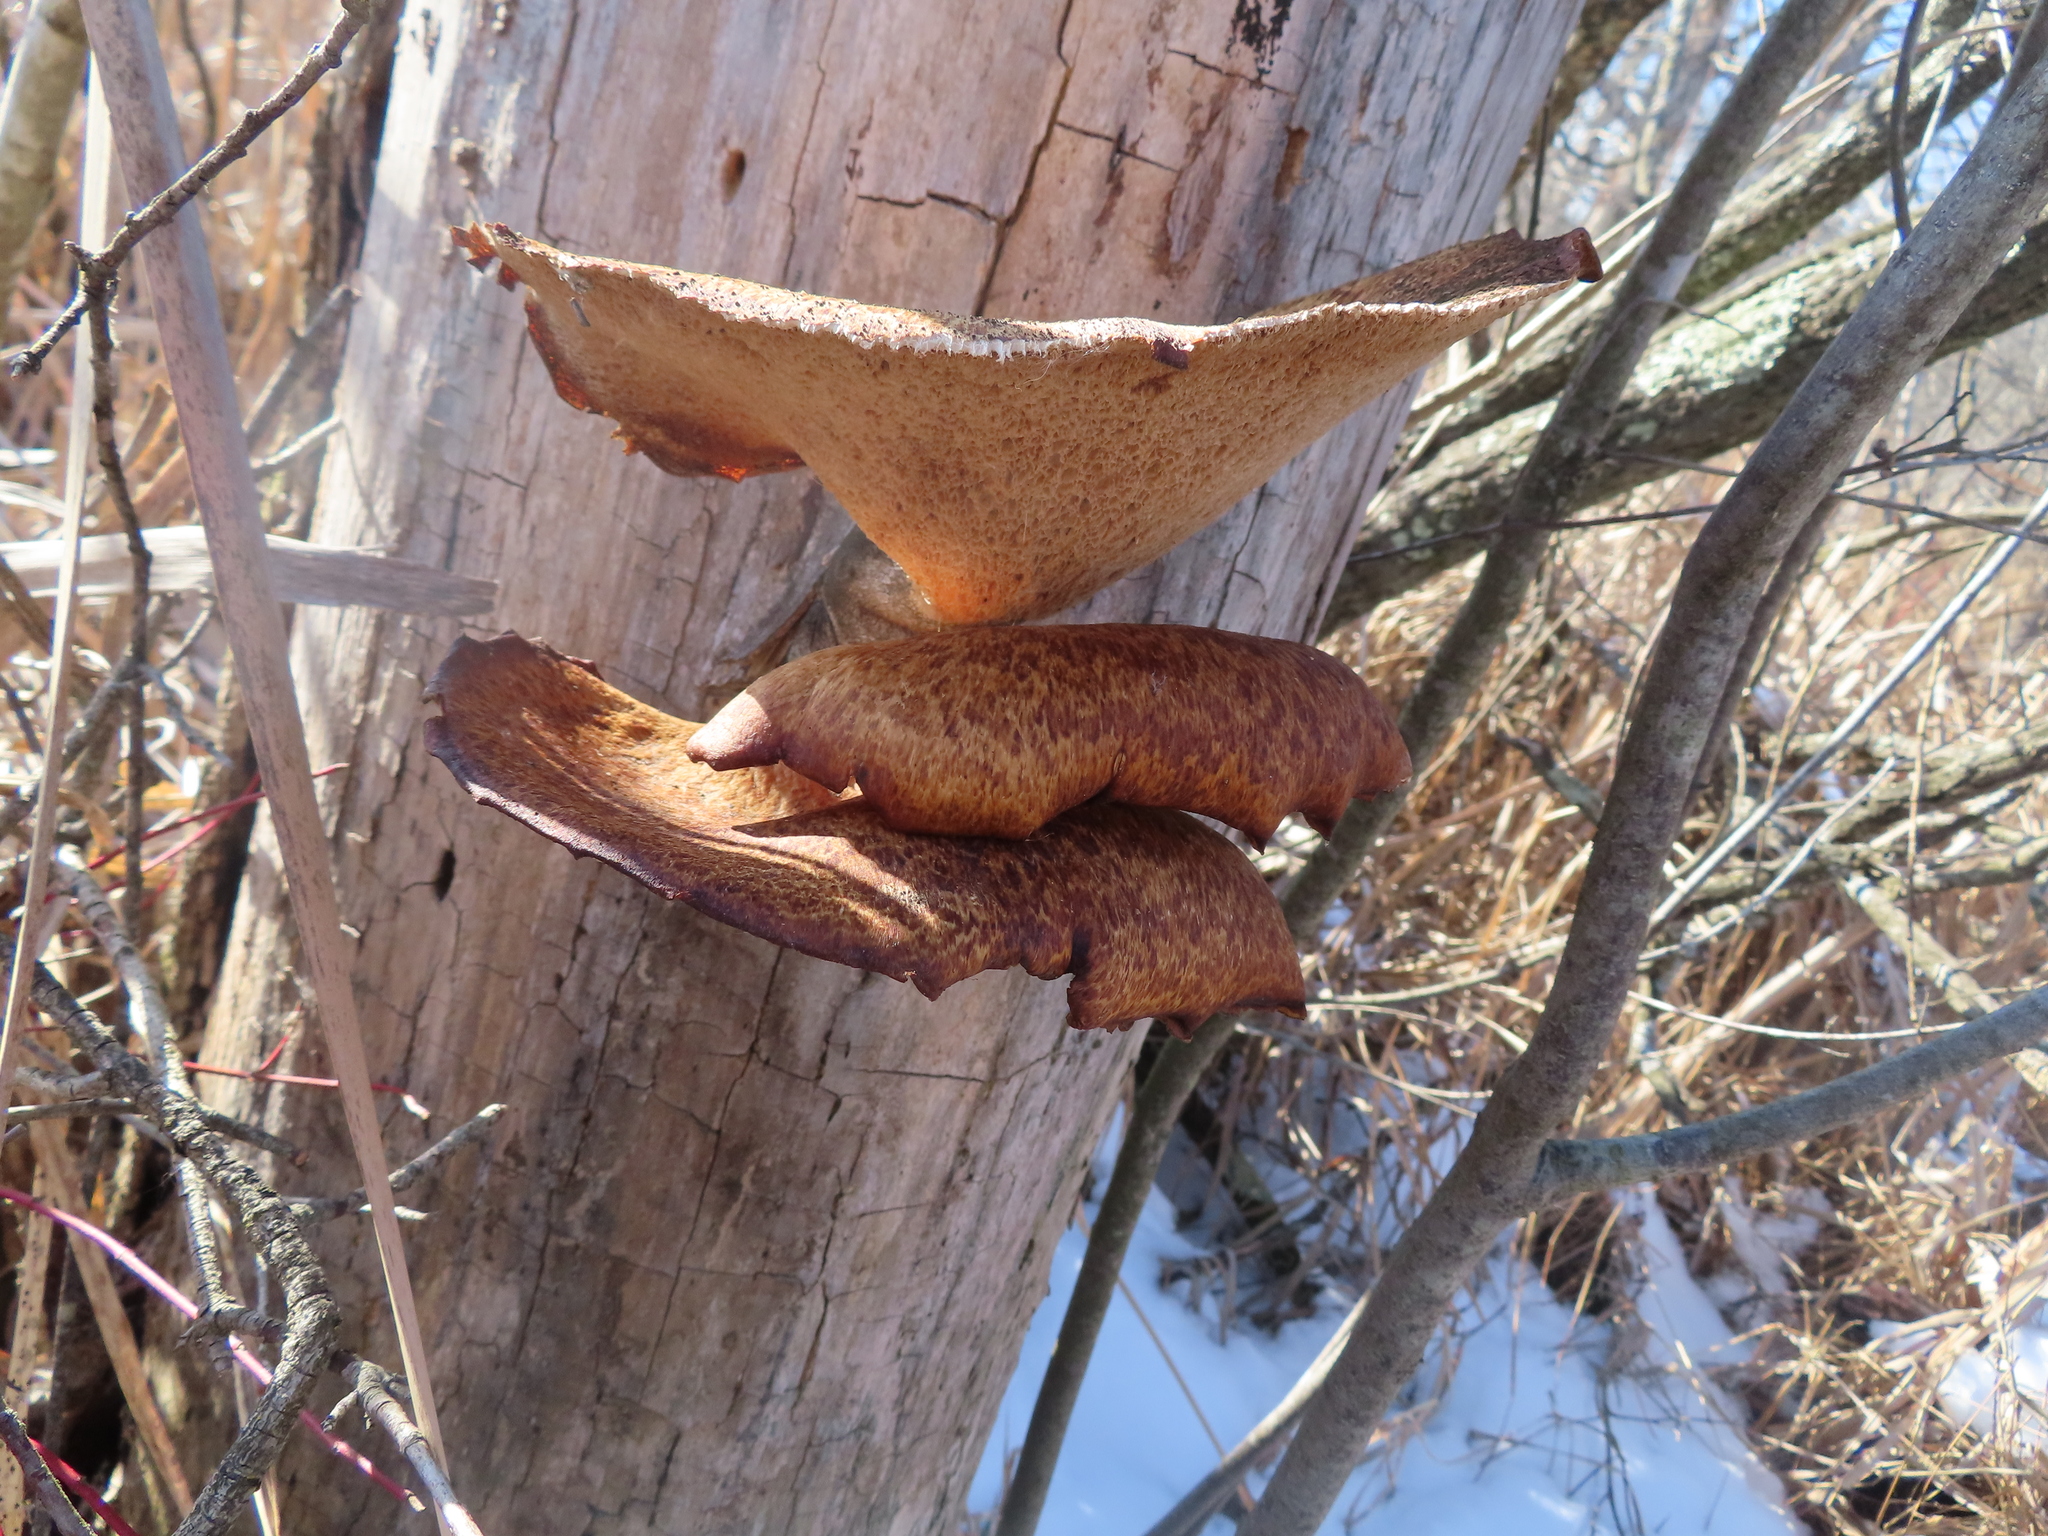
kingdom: Fungi
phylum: Basidiomycota
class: Agaricomycetes
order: Polyporales
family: Polyporaceae
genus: Cerioporus
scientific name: Cerioporus squamosus
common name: Dryad's saddle
